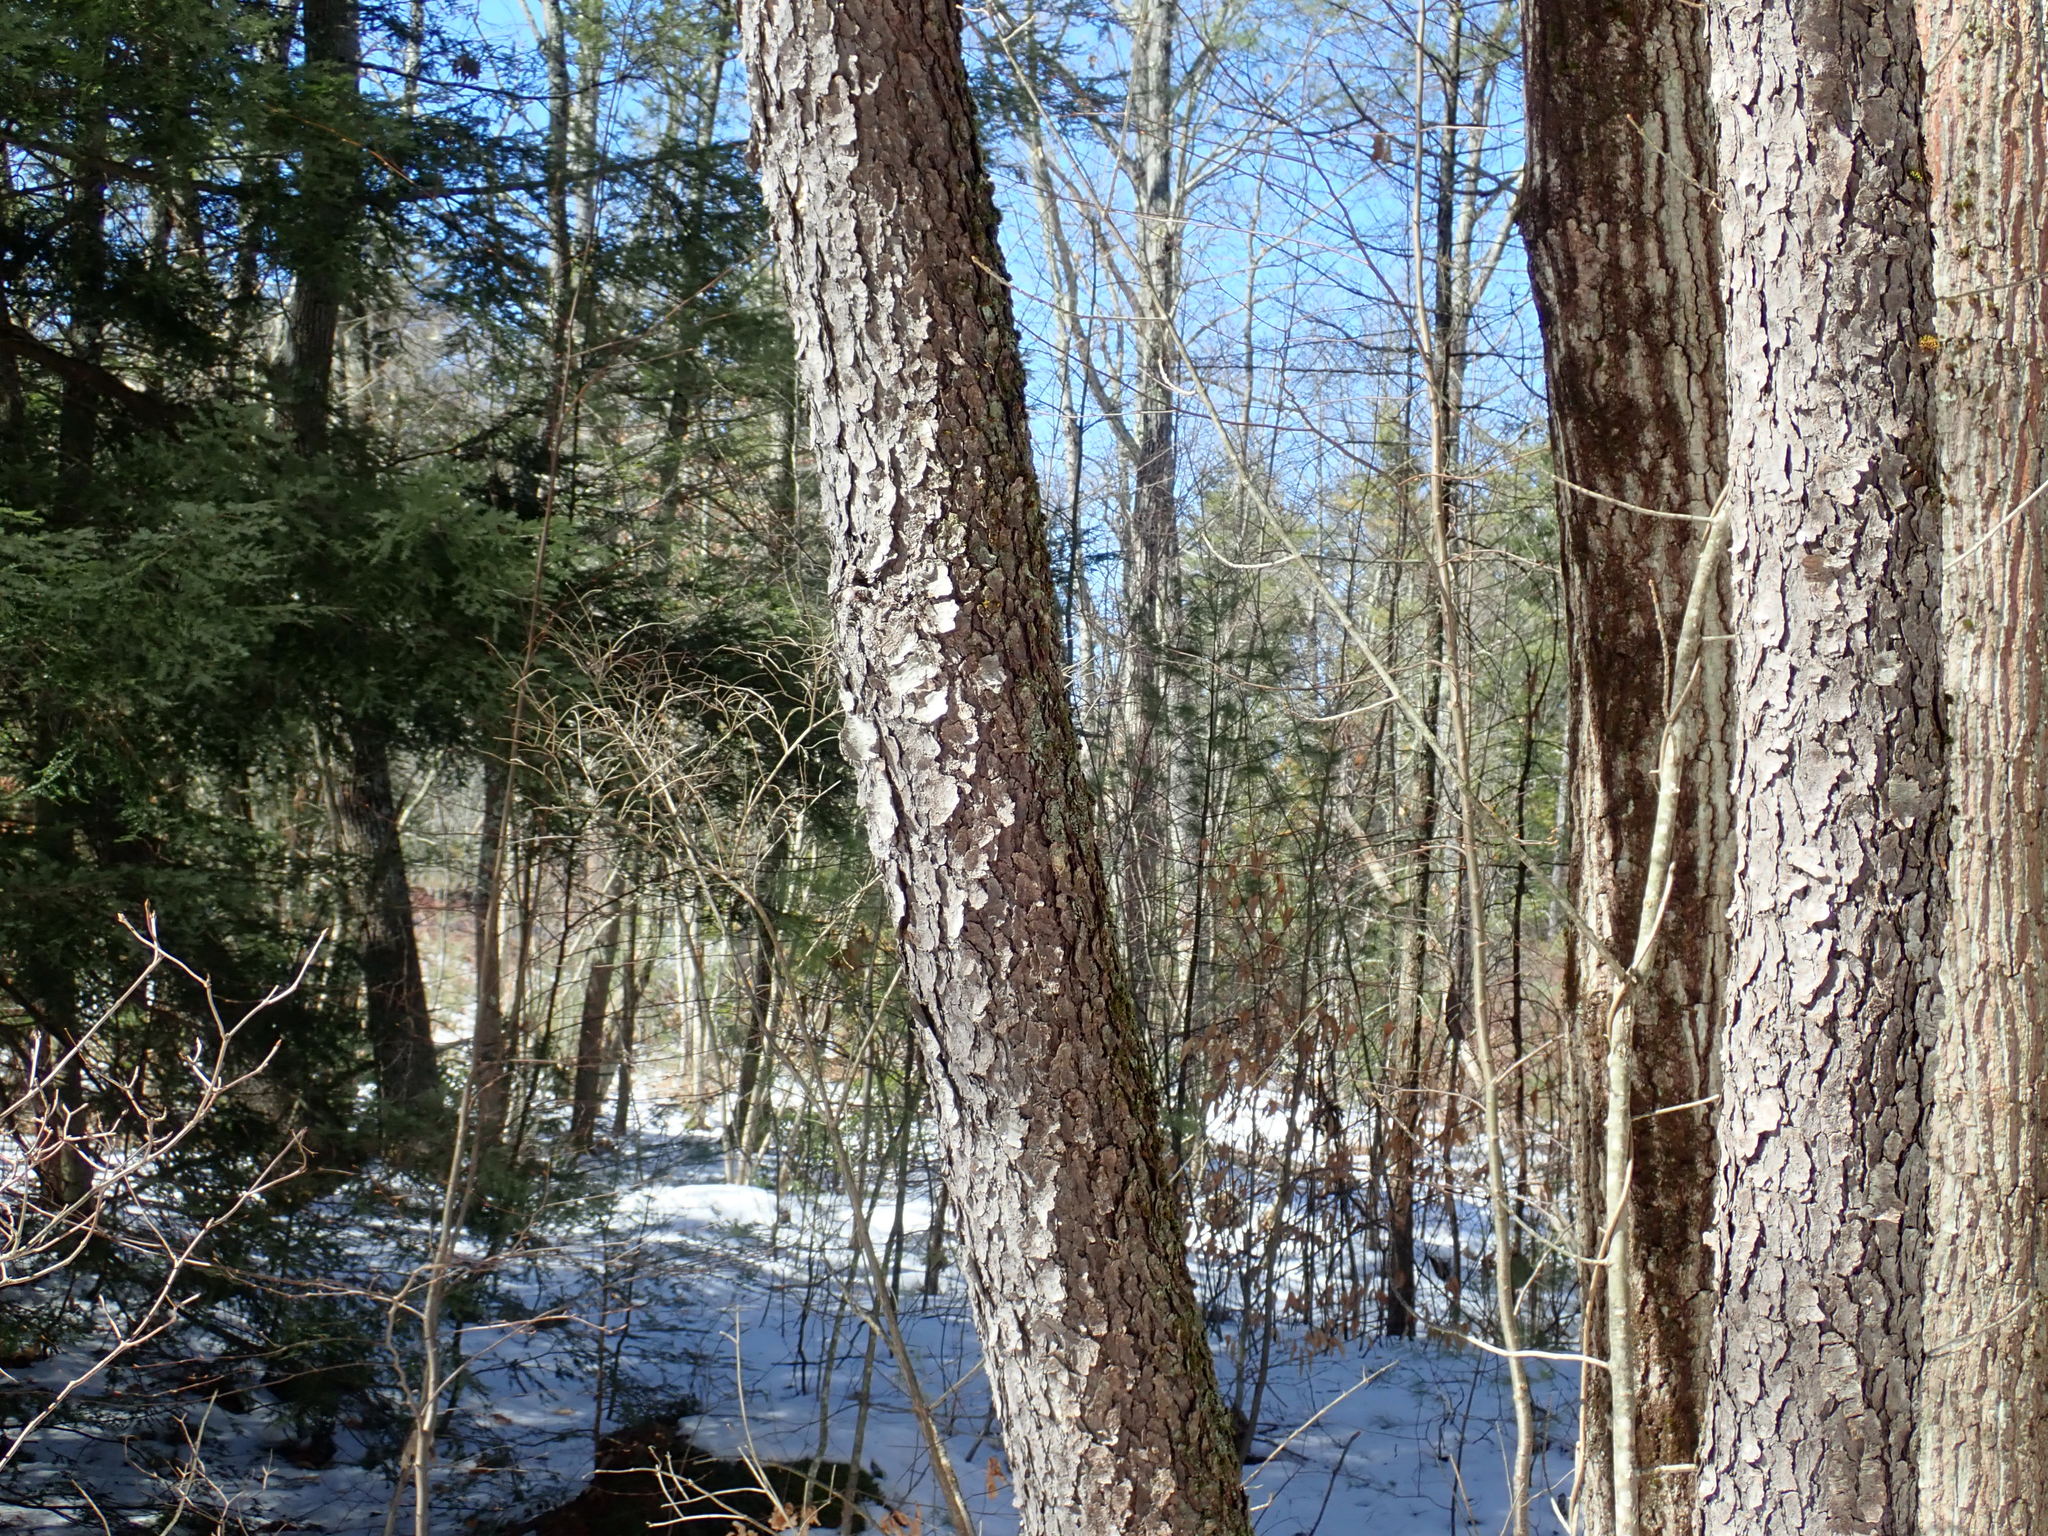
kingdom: Plantae
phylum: Tracheophyta
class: Magnoliopsida
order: Rosales
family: Rosaceae
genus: Prunus
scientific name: Prunus serotina
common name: Black cherry
